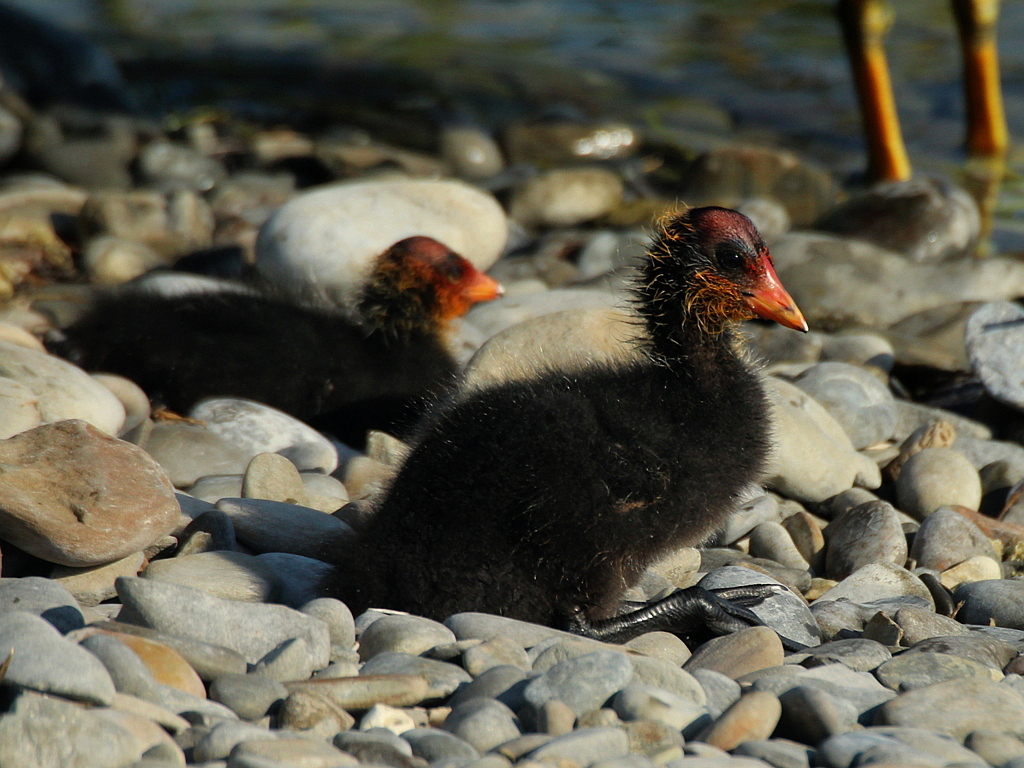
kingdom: Animalia
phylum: Chordata
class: Aves
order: Gruiformes
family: Rallidae
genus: Fulica
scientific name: Fulica atra
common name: Eurasian coot
